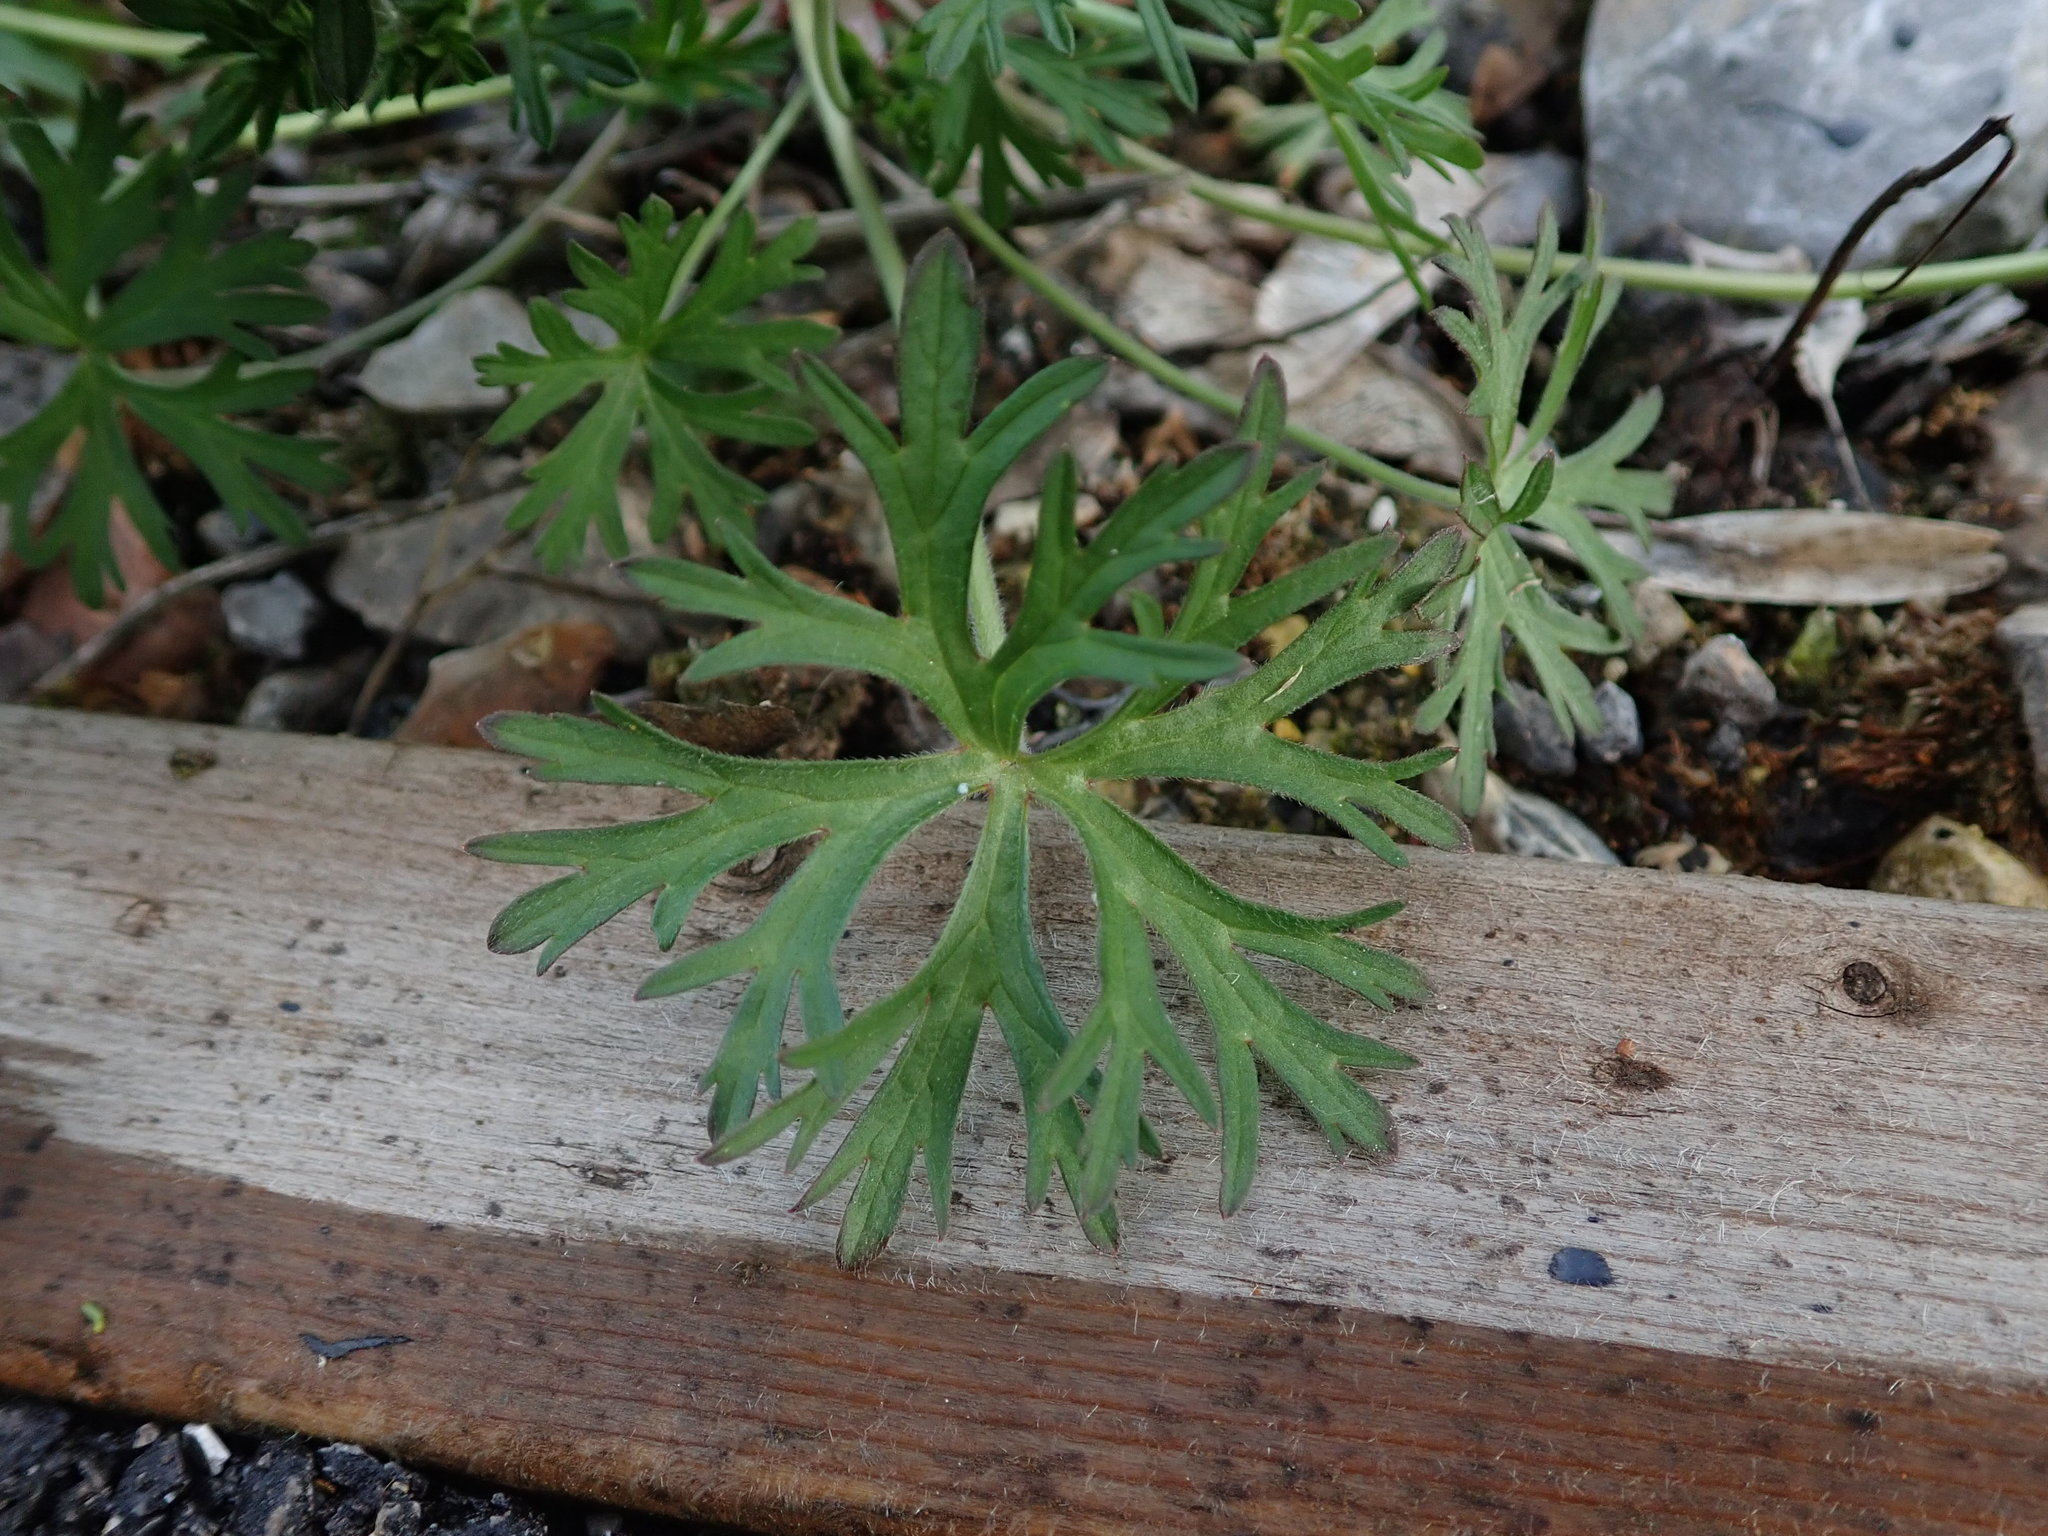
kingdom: Plantae
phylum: Tracheophyta
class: Magnoliopsida
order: Geraniales
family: Geraniaceae
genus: Geranium
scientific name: Geranium dissectum
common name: Cut-leaved crane's-bill
